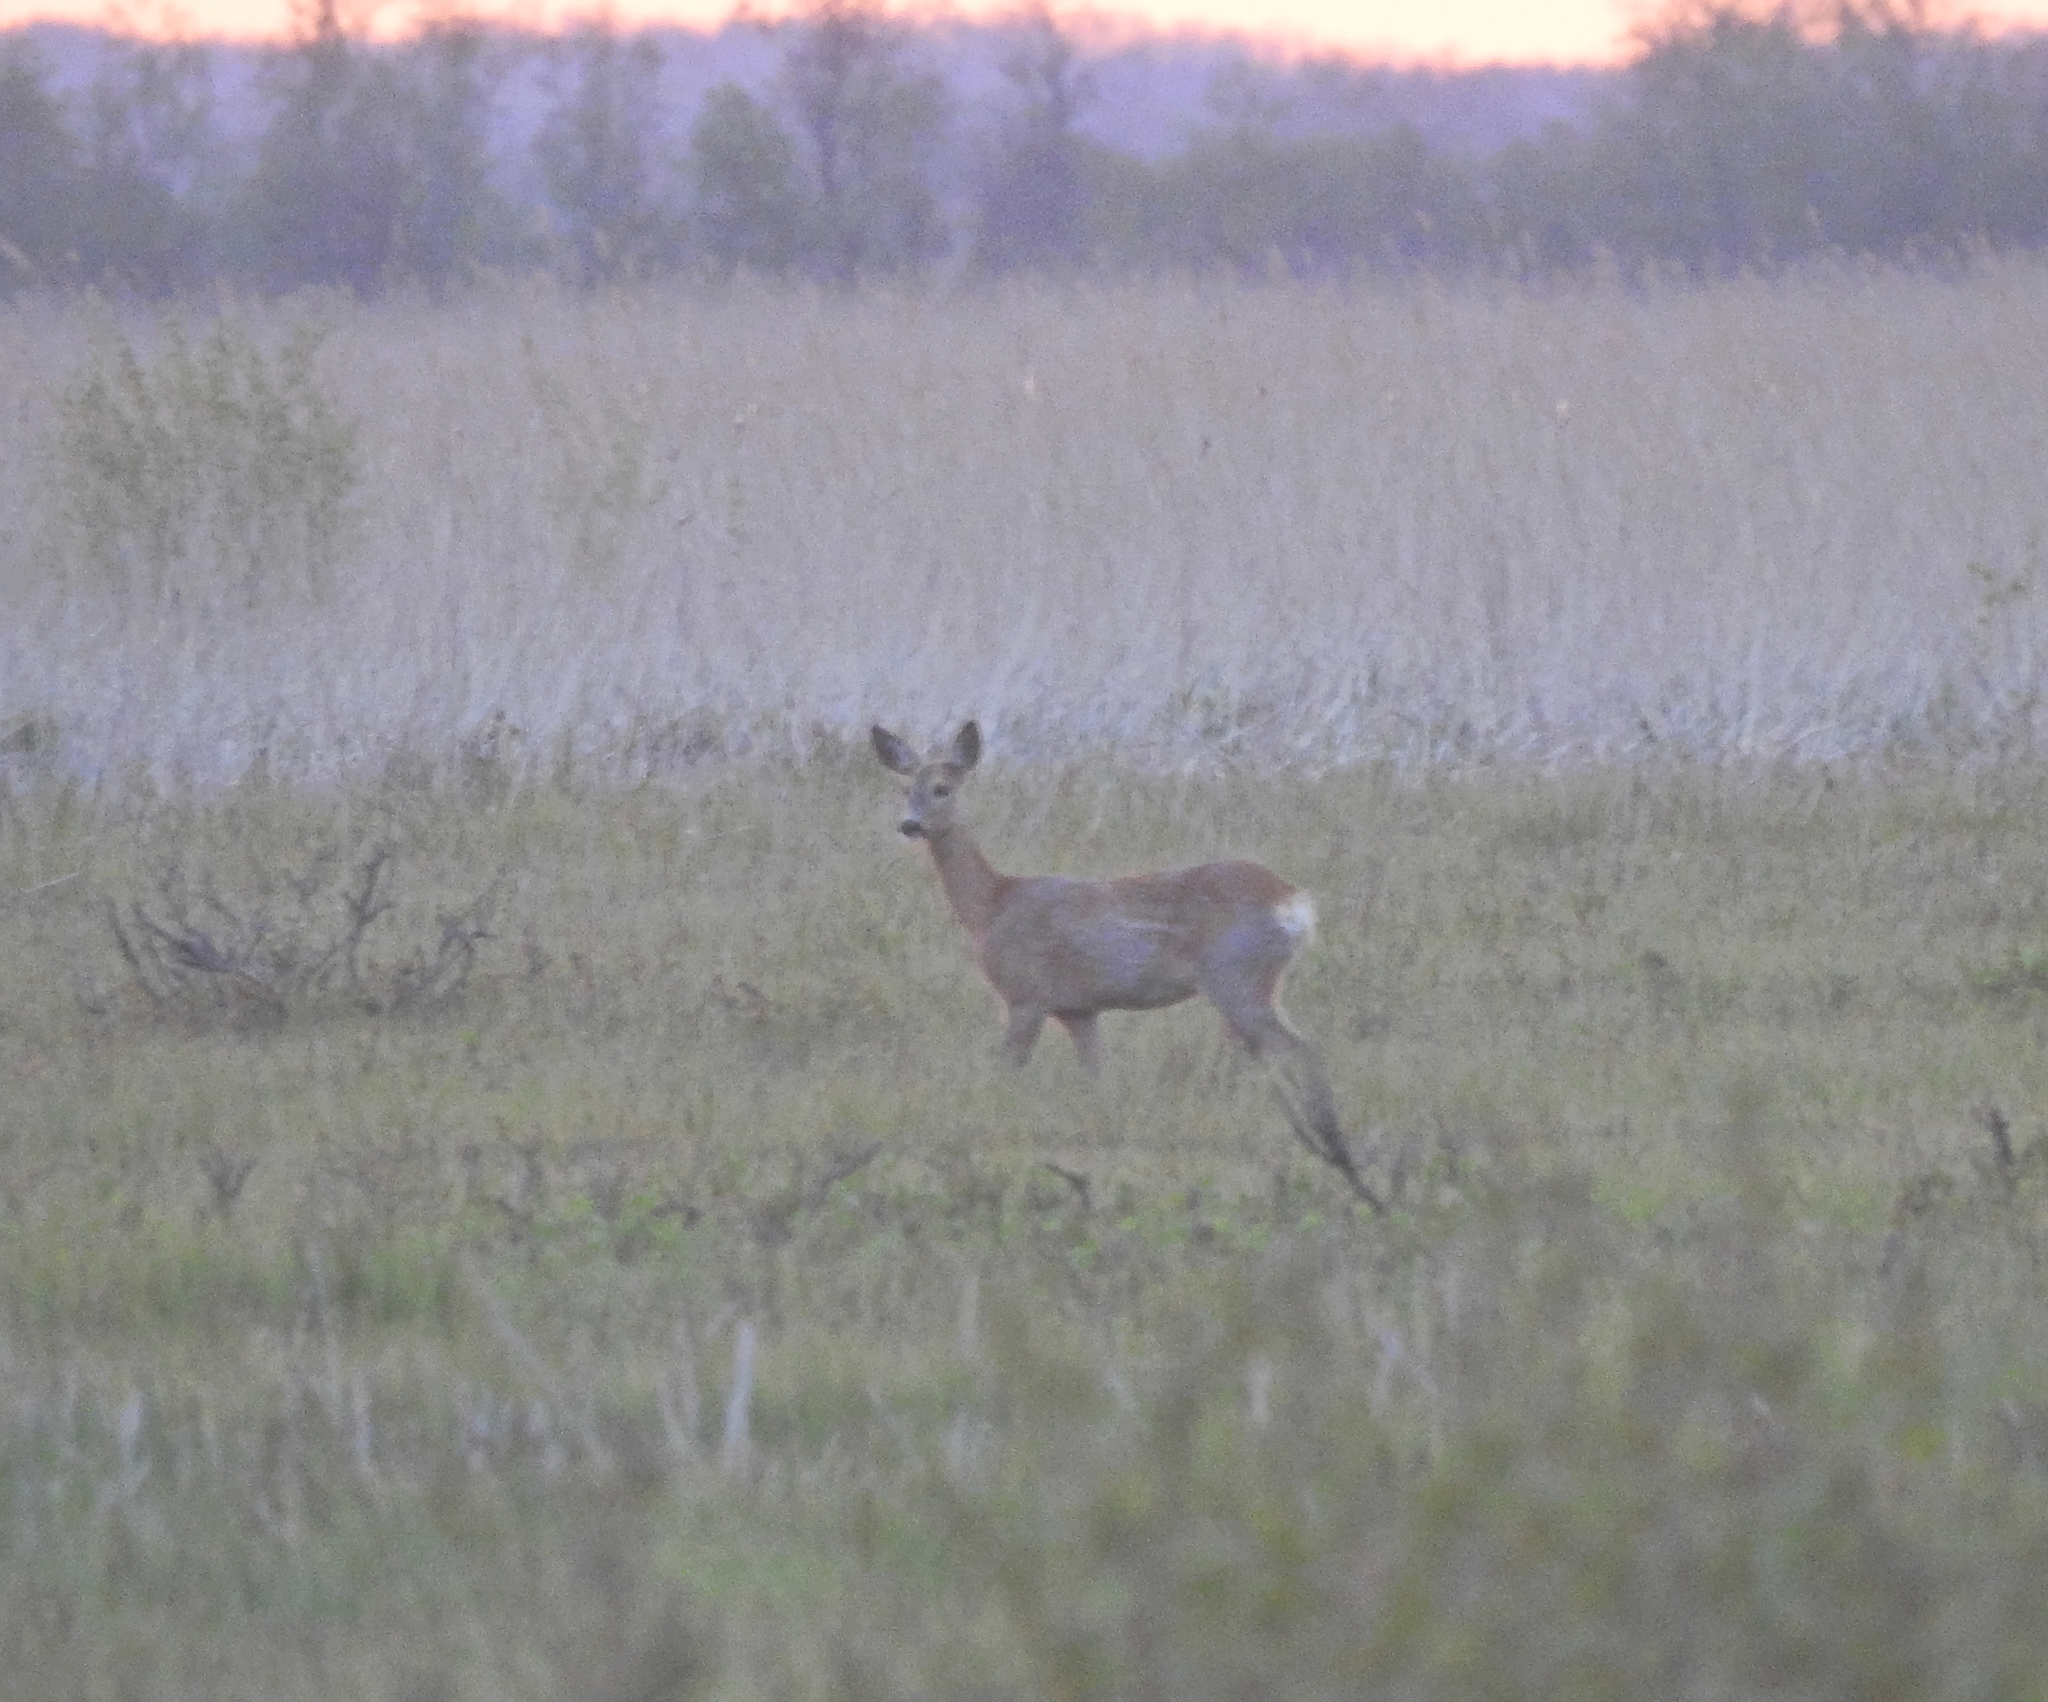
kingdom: Animalia
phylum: Chordata
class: Mammalia
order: Artiodactyla
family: Cervidae
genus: Capreolus
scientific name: Capreolus capreolus
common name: Western roe deer
